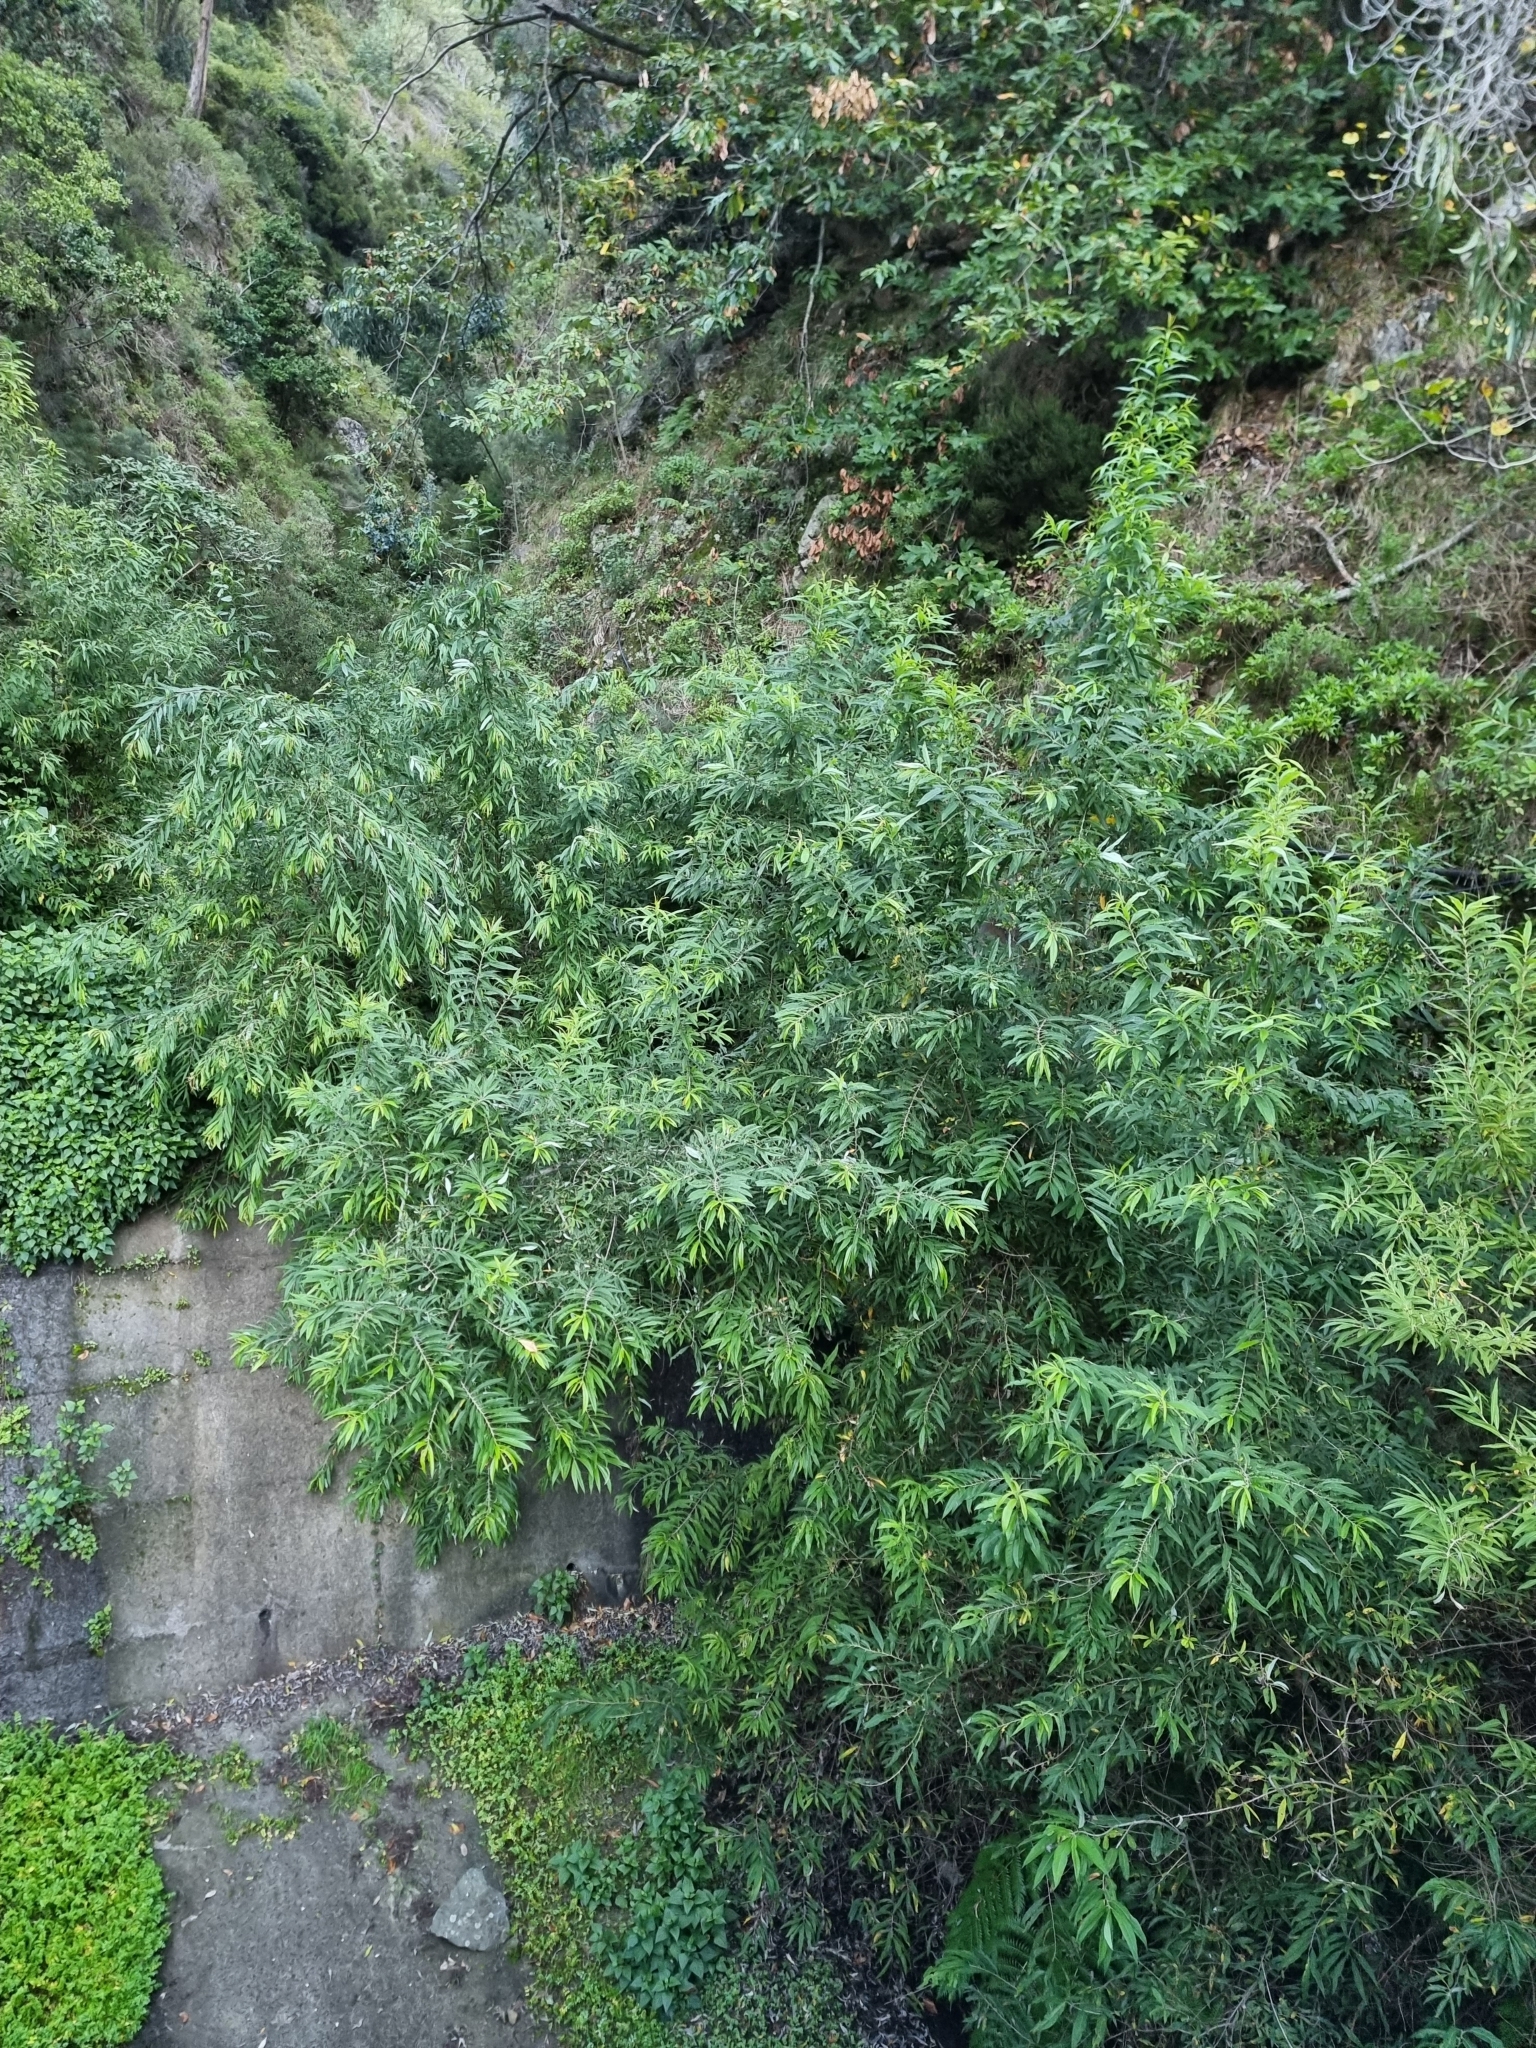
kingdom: Plantae
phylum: Tracheophyta
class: Magnoliopsida
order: Malpighiales
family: Salicaceae
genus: Salix
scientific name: Salix canariensis
